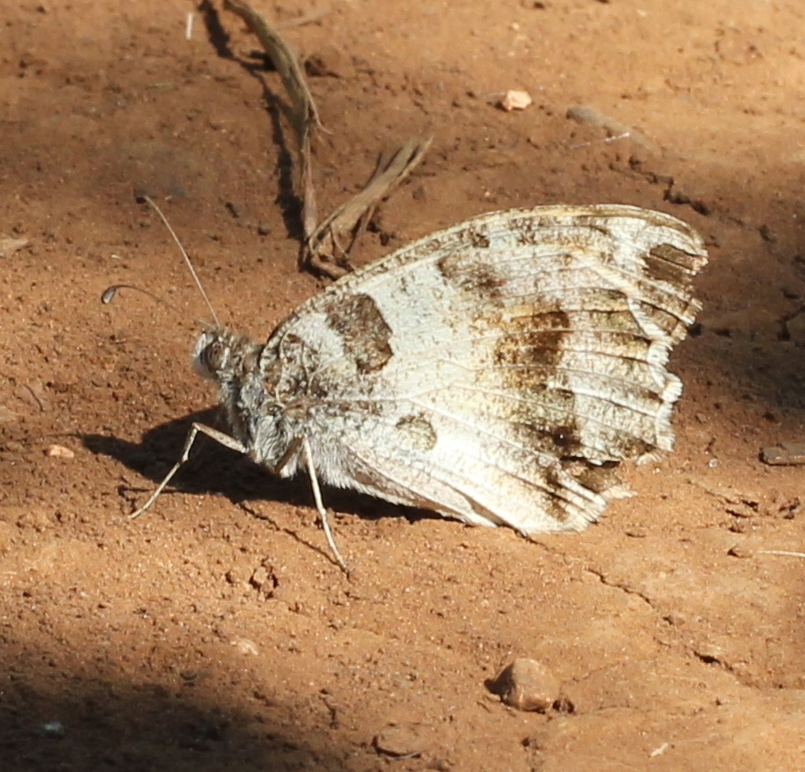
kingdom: Animalia
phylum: Arthropoda
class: Insecta
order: Lepidoptera
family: Nymphalidae
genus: Satyrus
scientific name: Satyrus briseis
